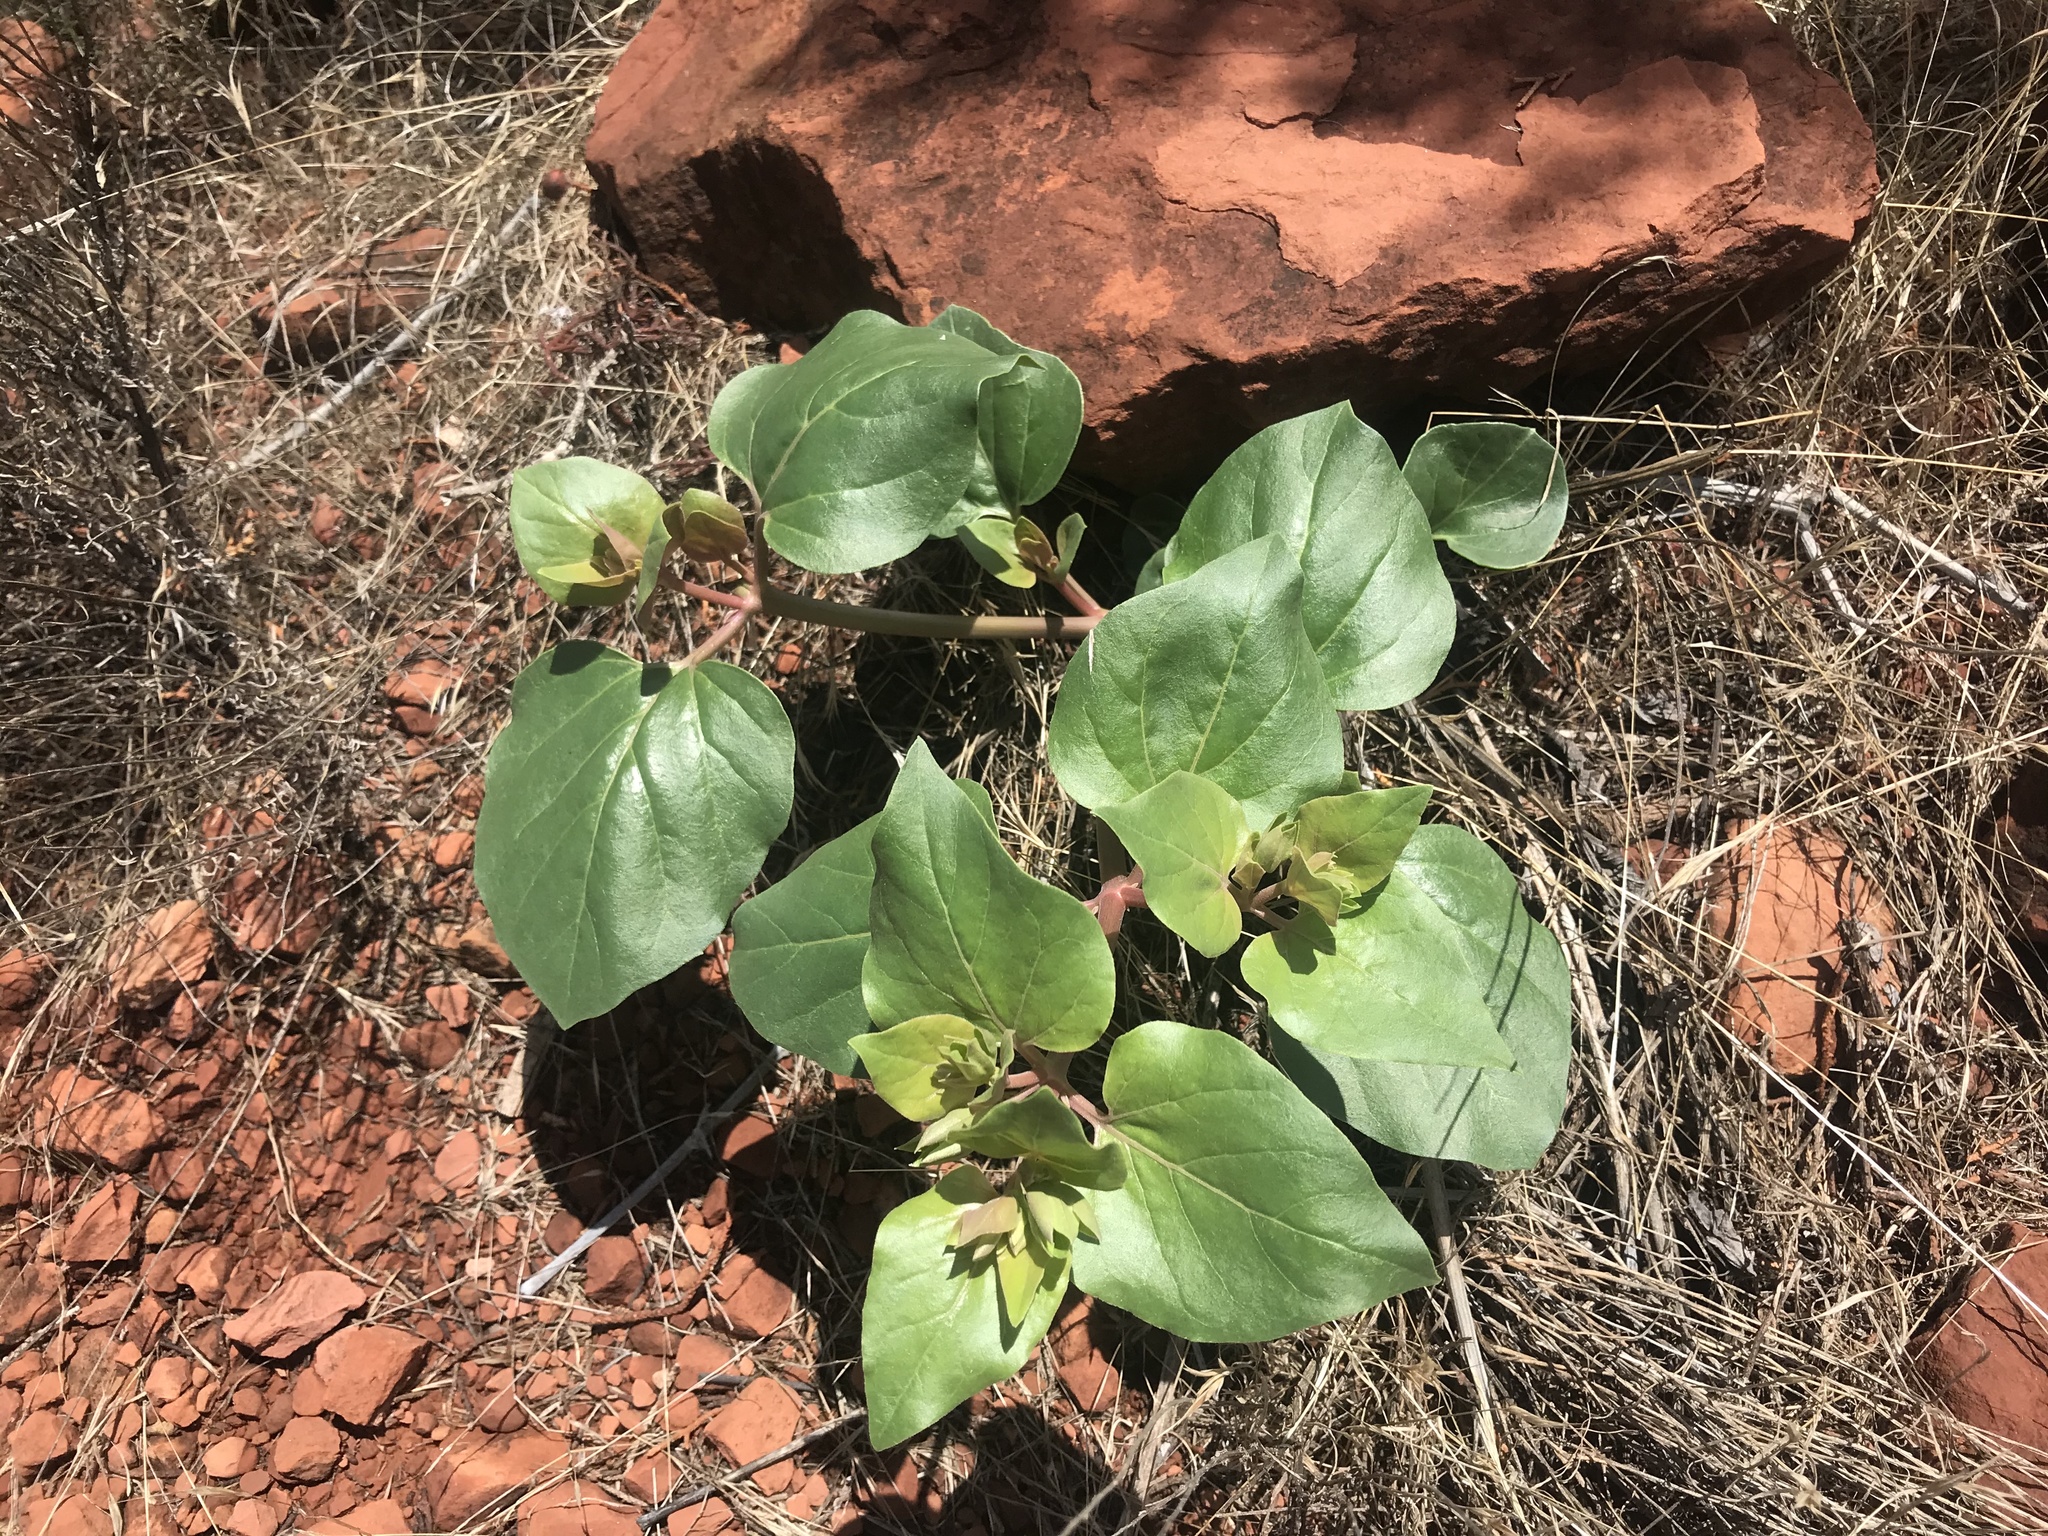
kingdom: Plantae
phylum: Tracheophyta
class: Magnoliopsida
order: Caryophyllales
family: Nyctaginaceae
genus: Mirabilis
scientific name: Mirabilis multiflora
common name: Froebel's four-o'clock
